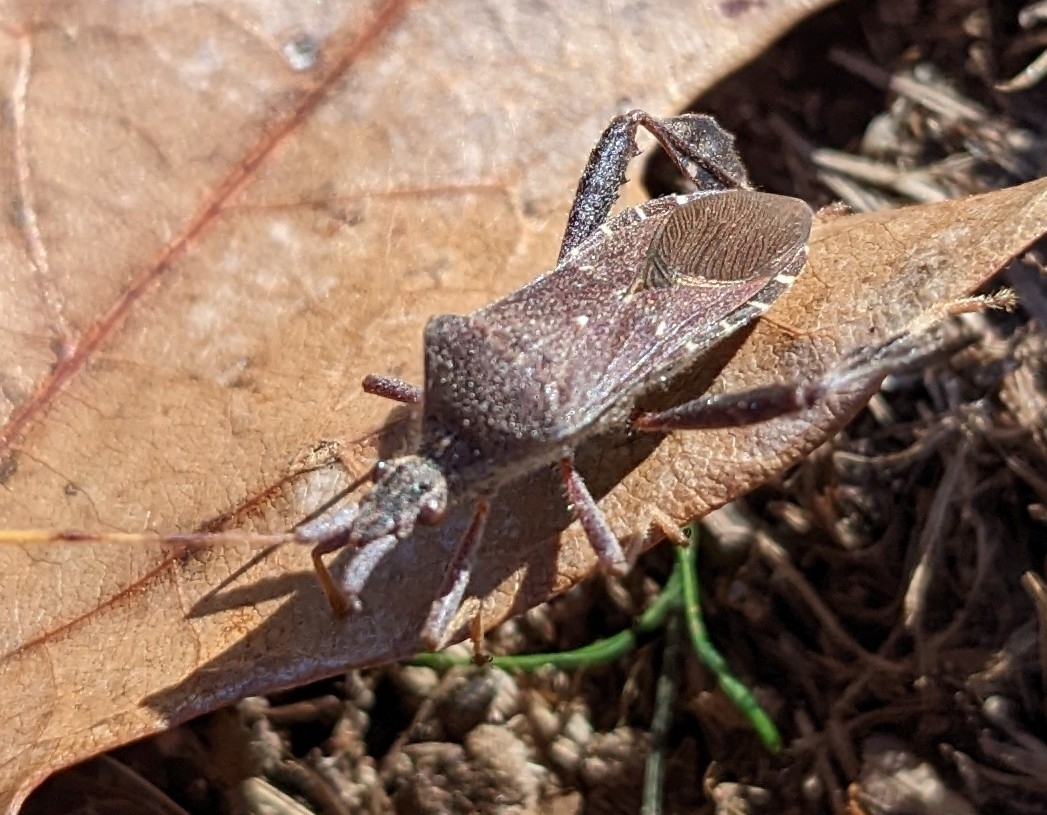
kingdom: Animalia
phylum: Arthropoda
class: Insecta
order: Hemiptera
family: Coreidae
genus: Leptoglossus
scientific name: Leptoglossus oppositus
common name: Northern leaf-footed bug
